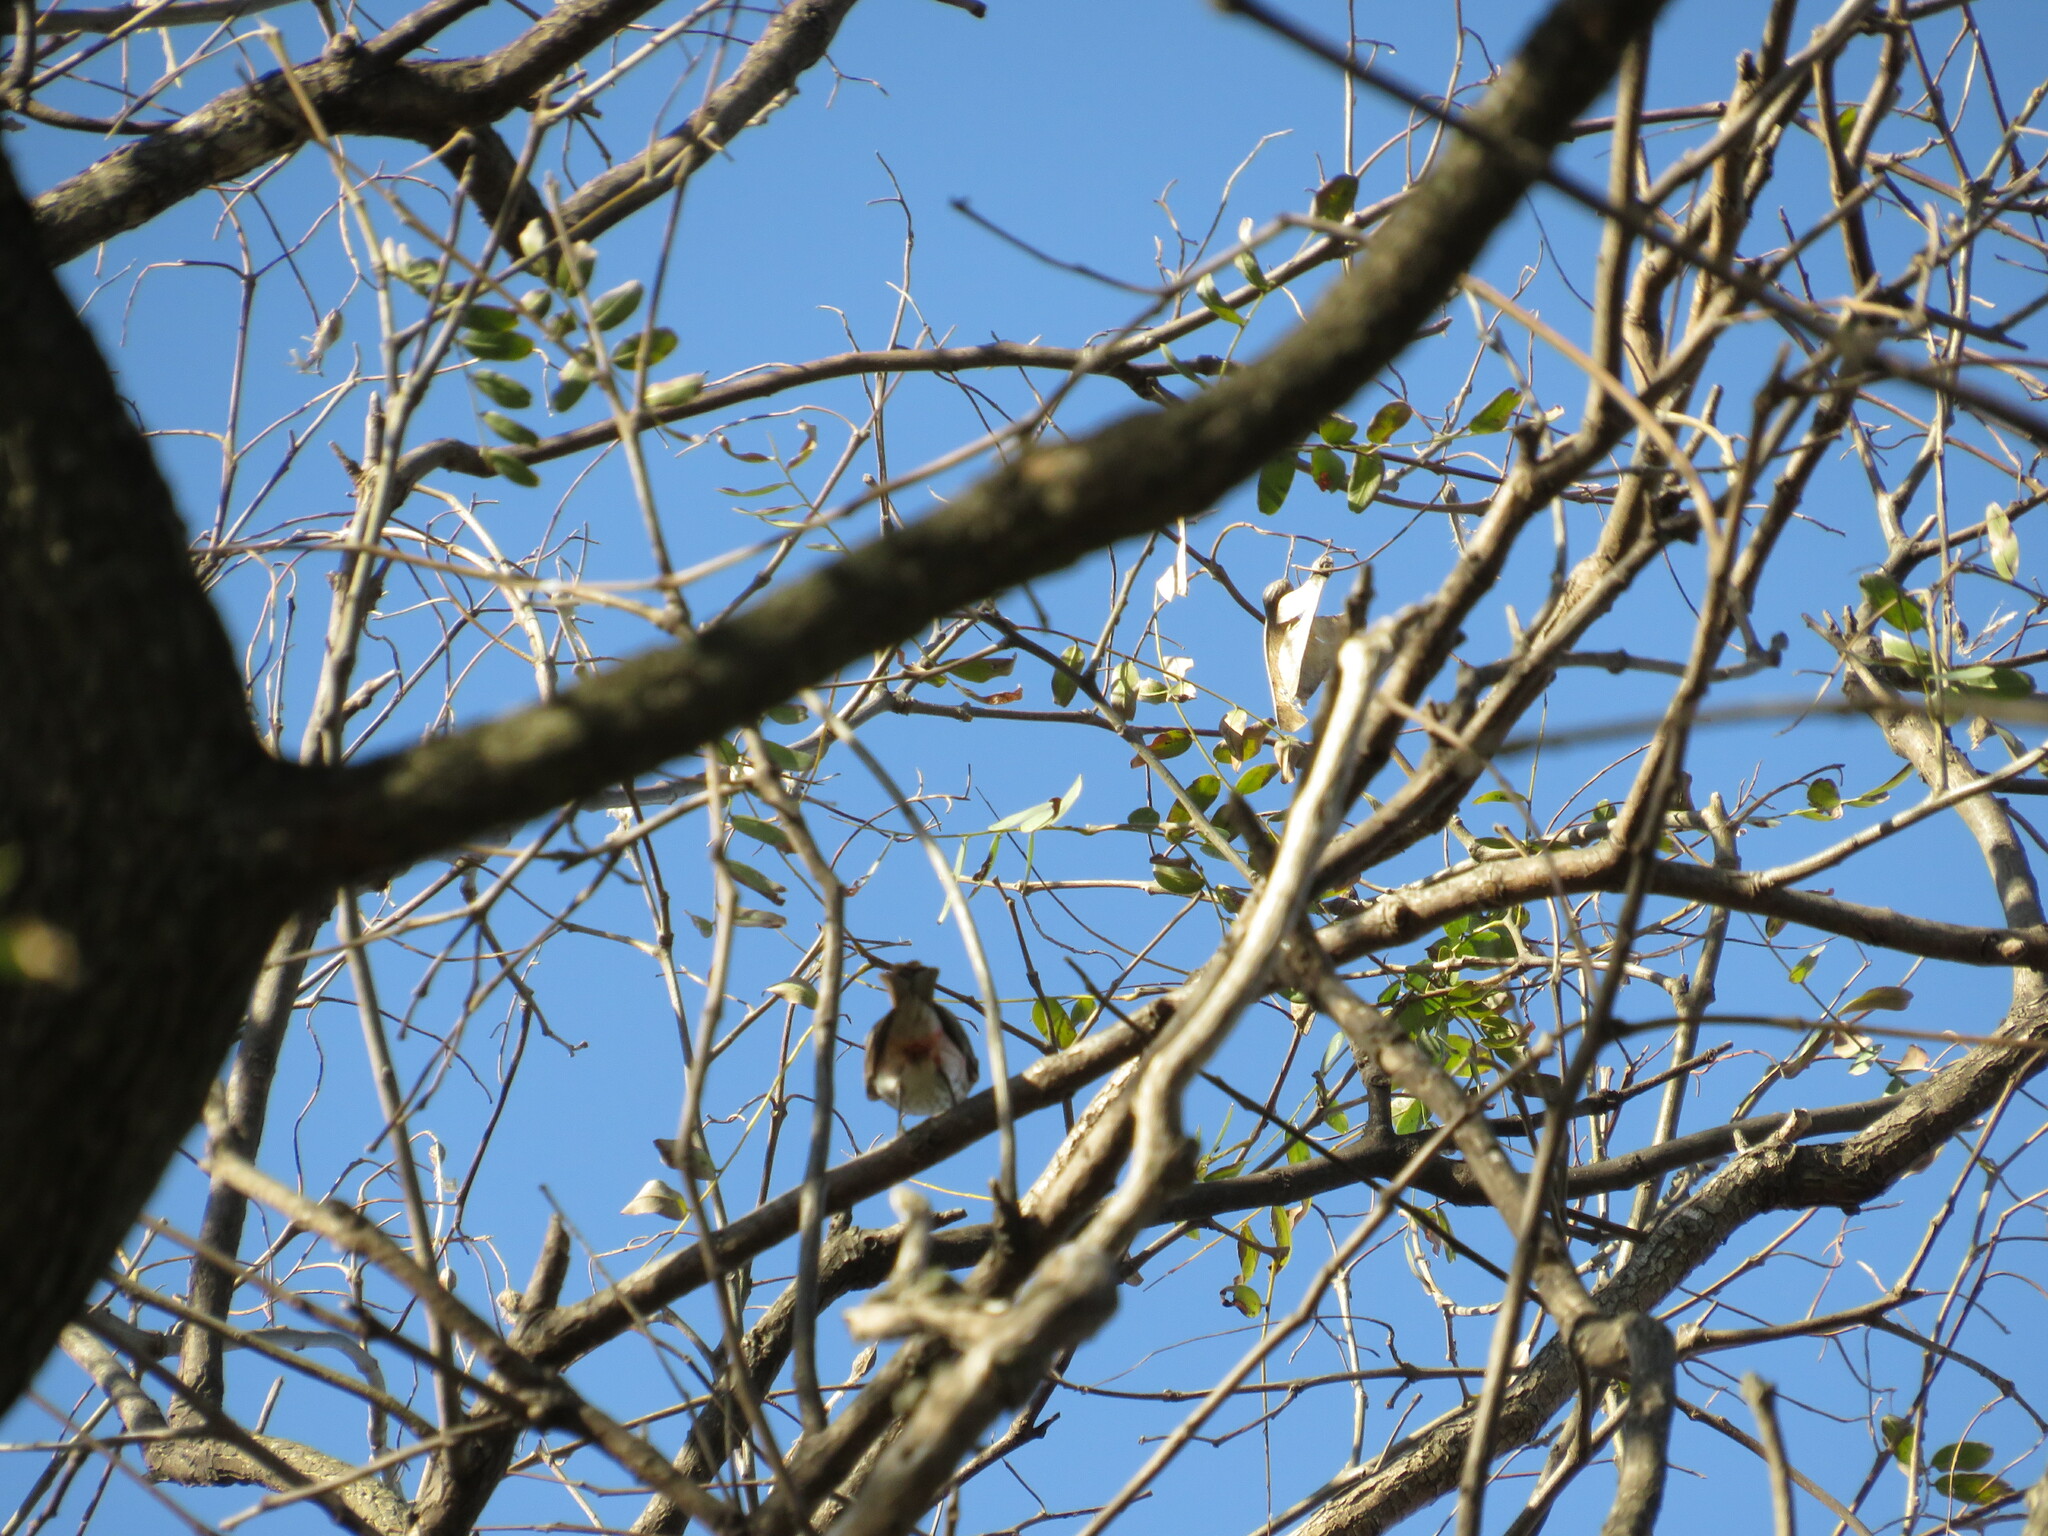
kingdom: Animalia
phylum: Chordata
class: Aves
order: Passeriformes
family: Tyrannidae
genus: Pyrocephalus
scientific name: Pyrocephalus rubinus
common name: Vermilion flycatcher
